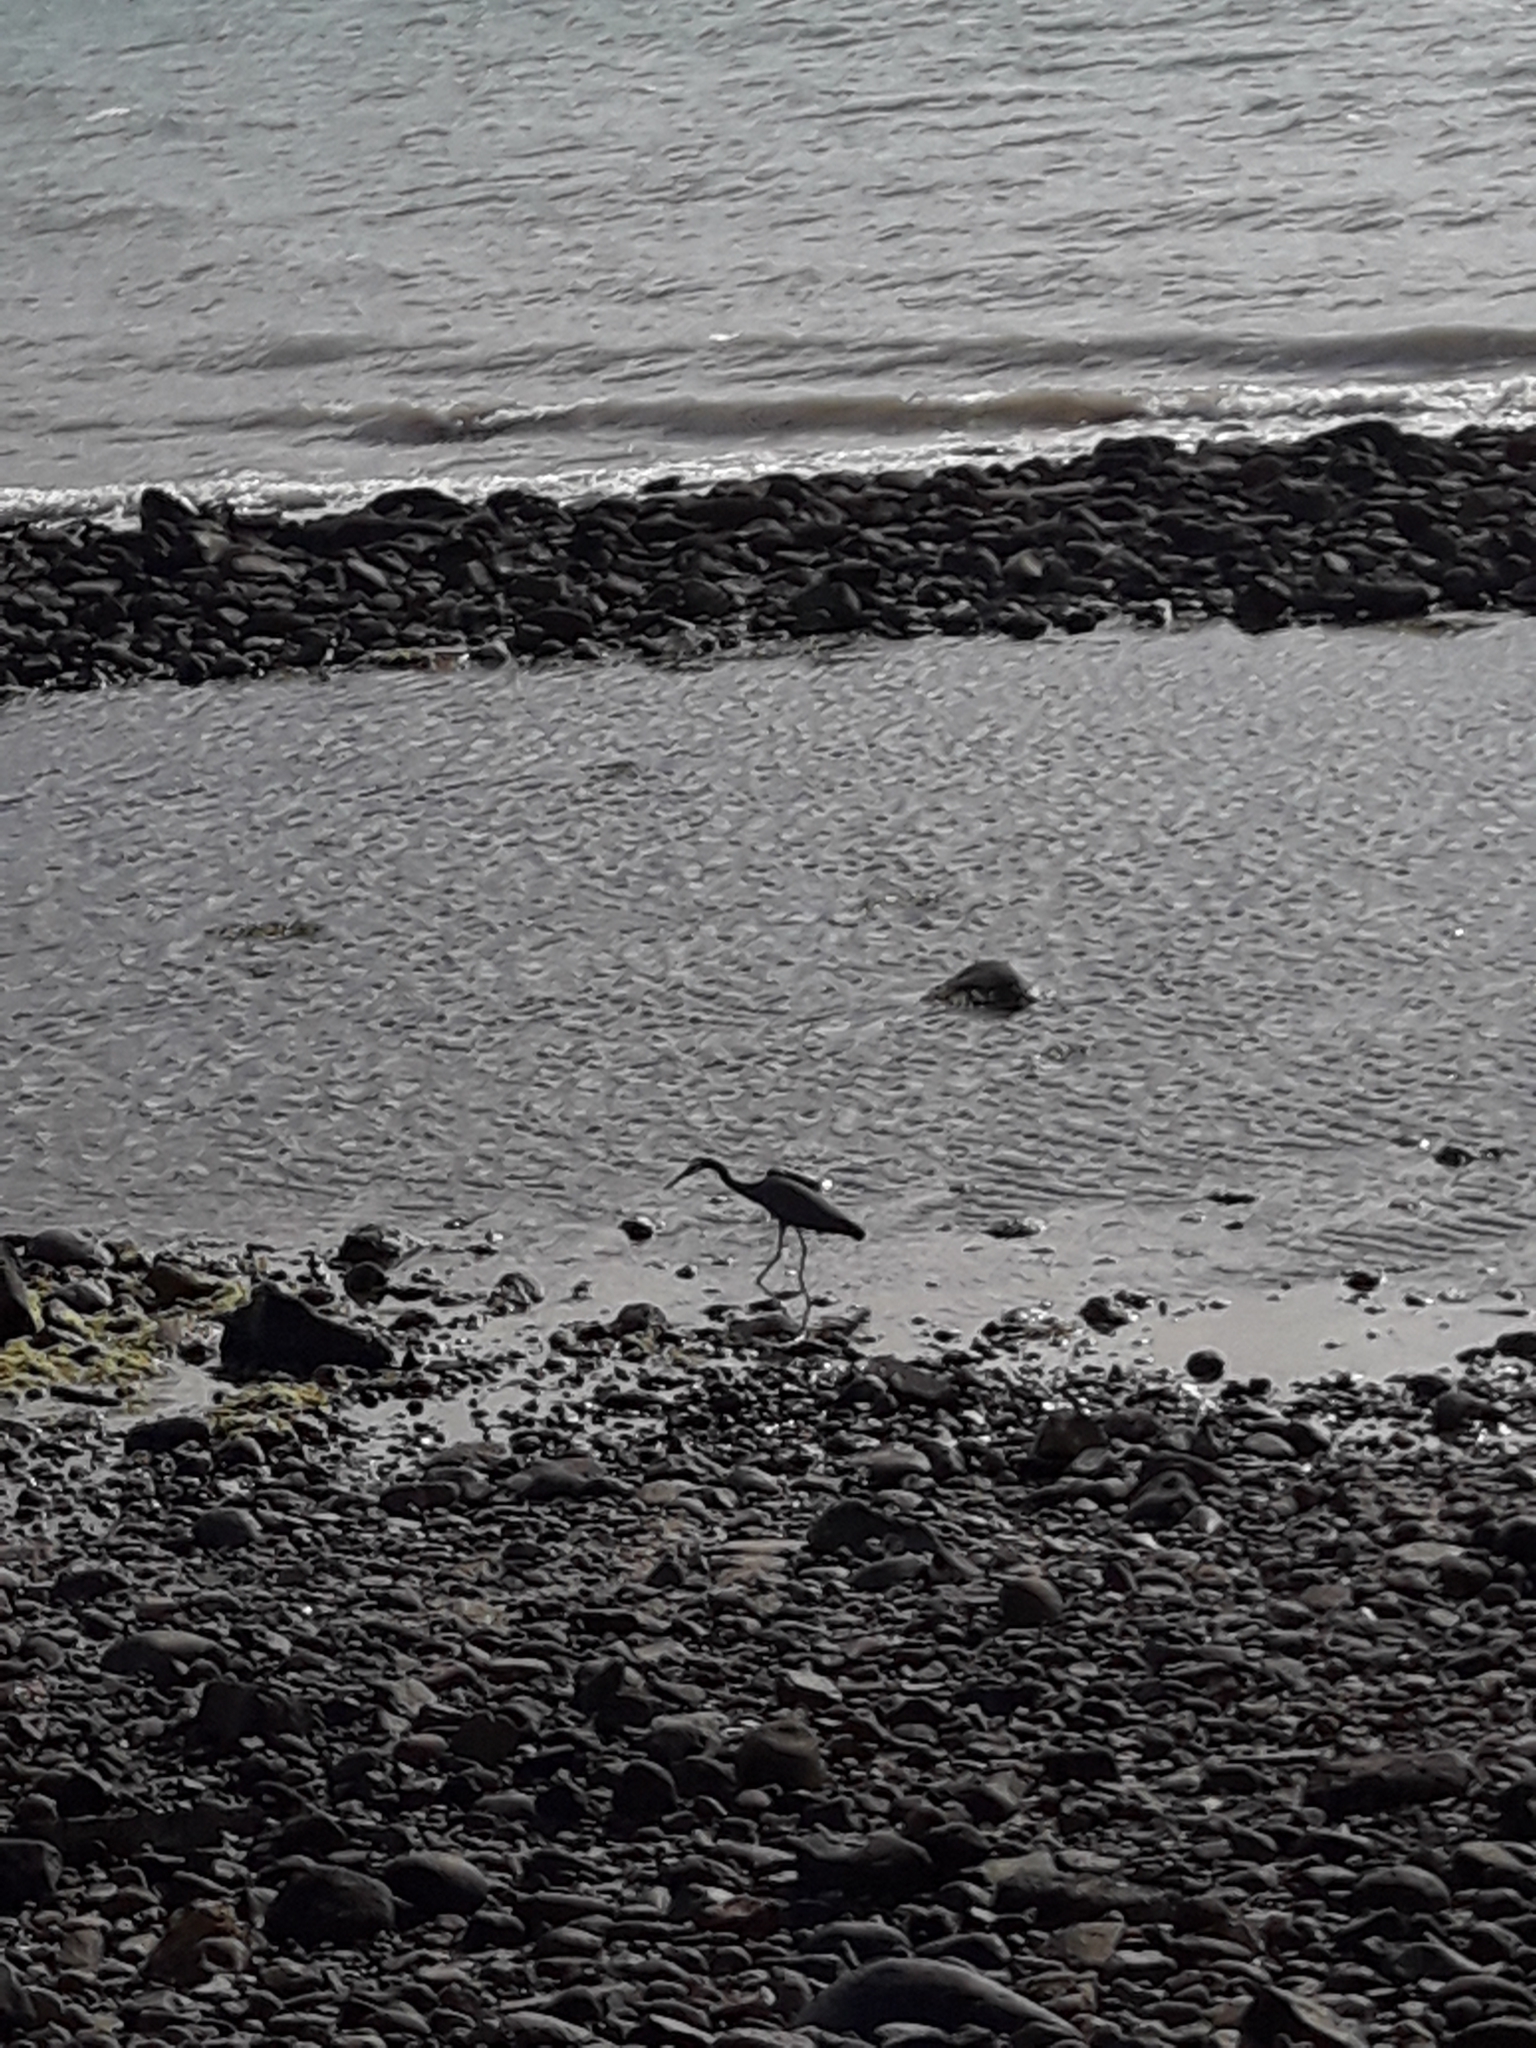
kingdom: Animalia
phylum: Chordata
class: Aves
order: Pelecaniformes
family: Ardeidae
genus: Egretta
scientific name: Egretta novaehollandiae
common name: White-faced heron
